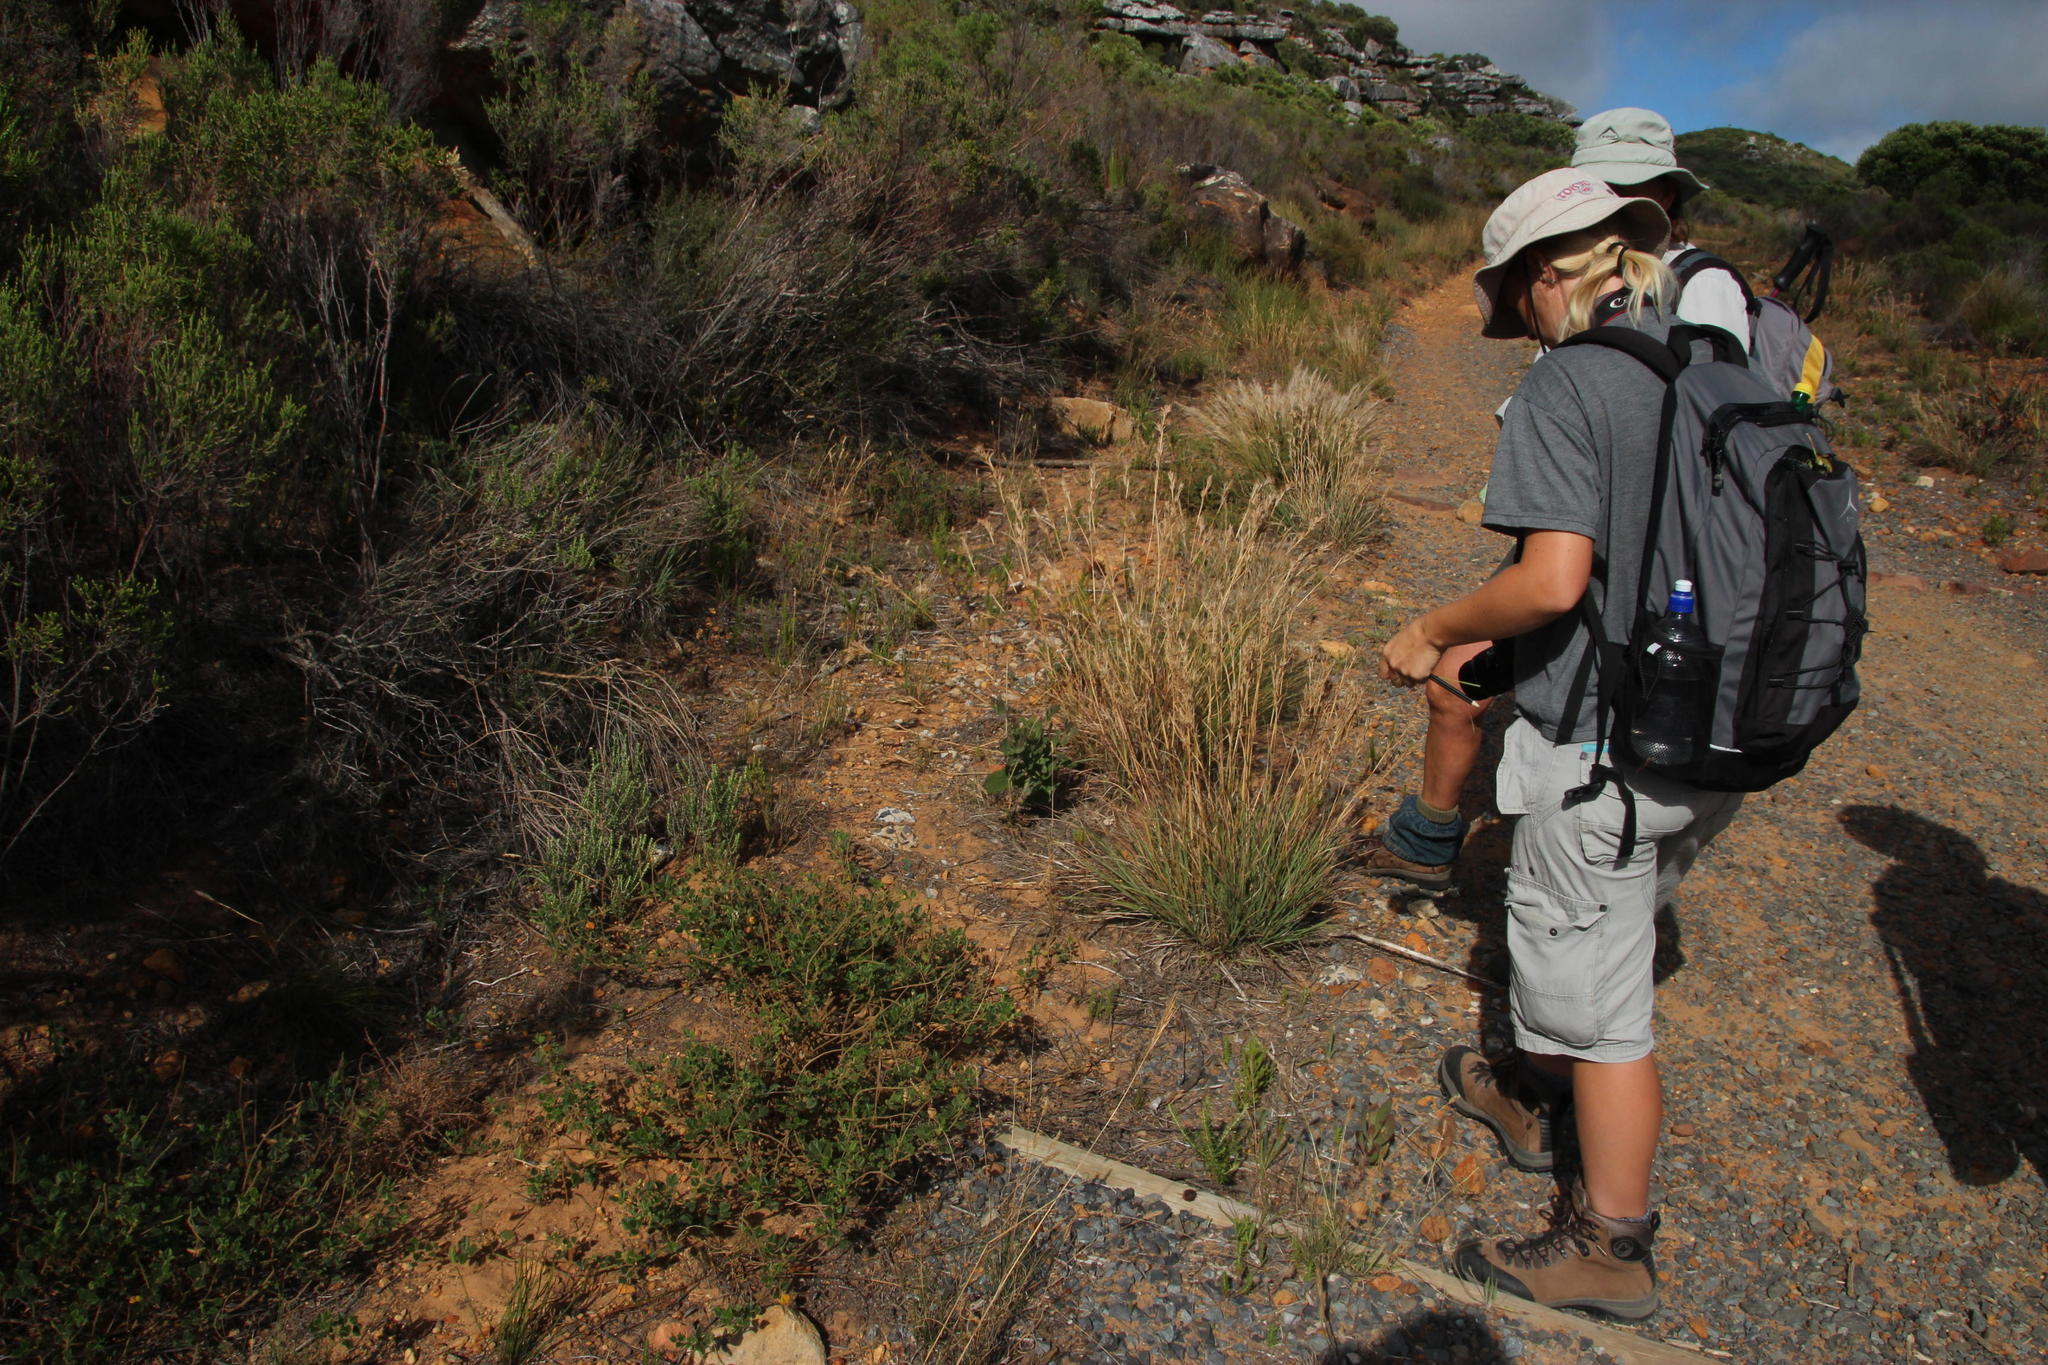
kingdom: Plantae
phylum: Tracheophyta
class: Liliopsida
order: Poales
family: Poaceae
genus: Cymbopogon
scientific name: Cymbopogon pospischilii
